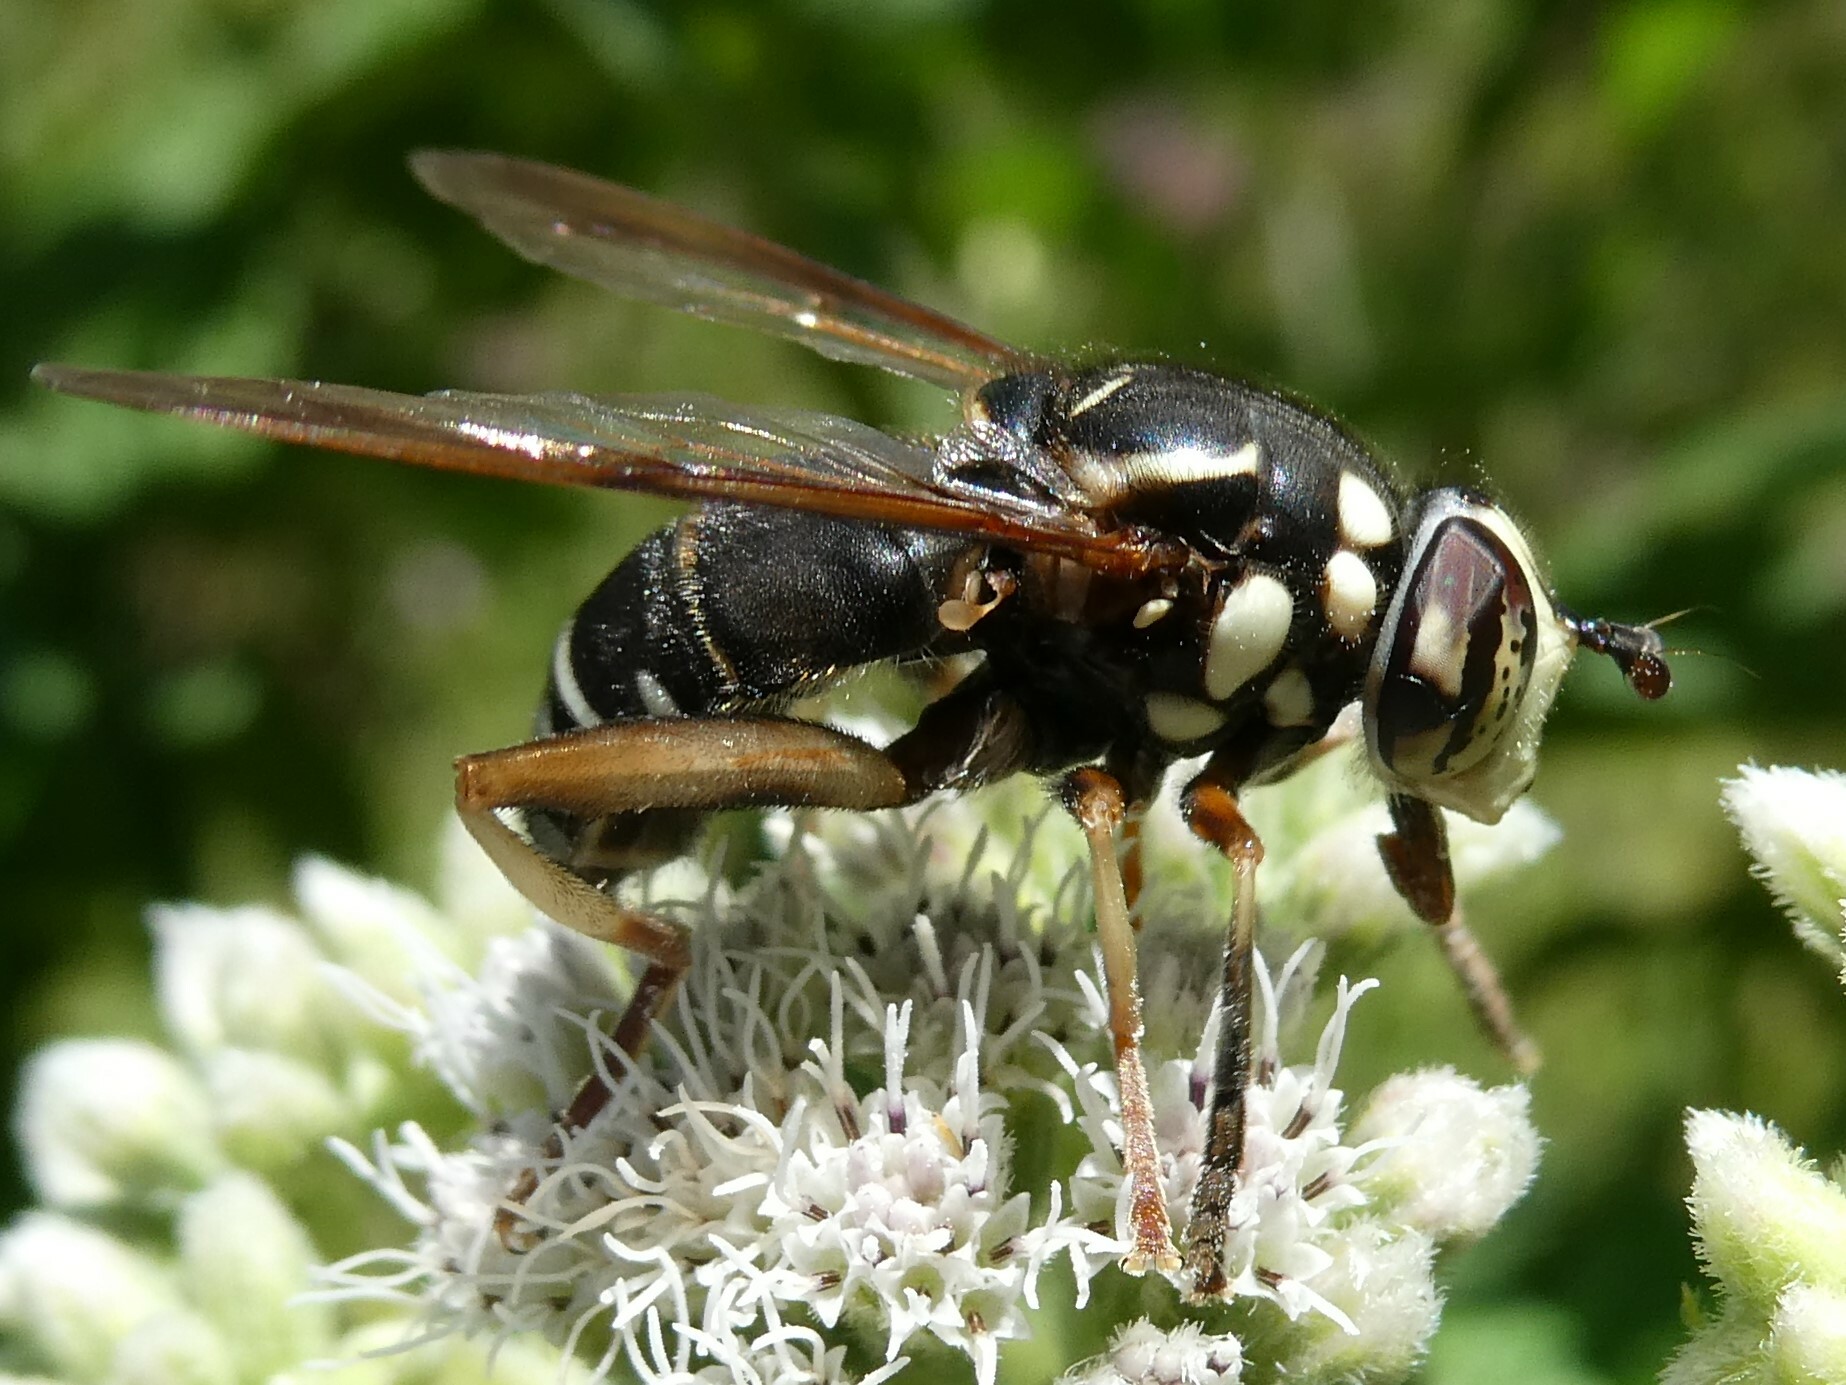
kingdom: Animalia
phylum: Arthropoda
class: Insecta
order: Diptera
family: Syrphidae
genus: Spilomyia
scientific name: Spilomyia fusca
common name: Bald-faced hornet fly
